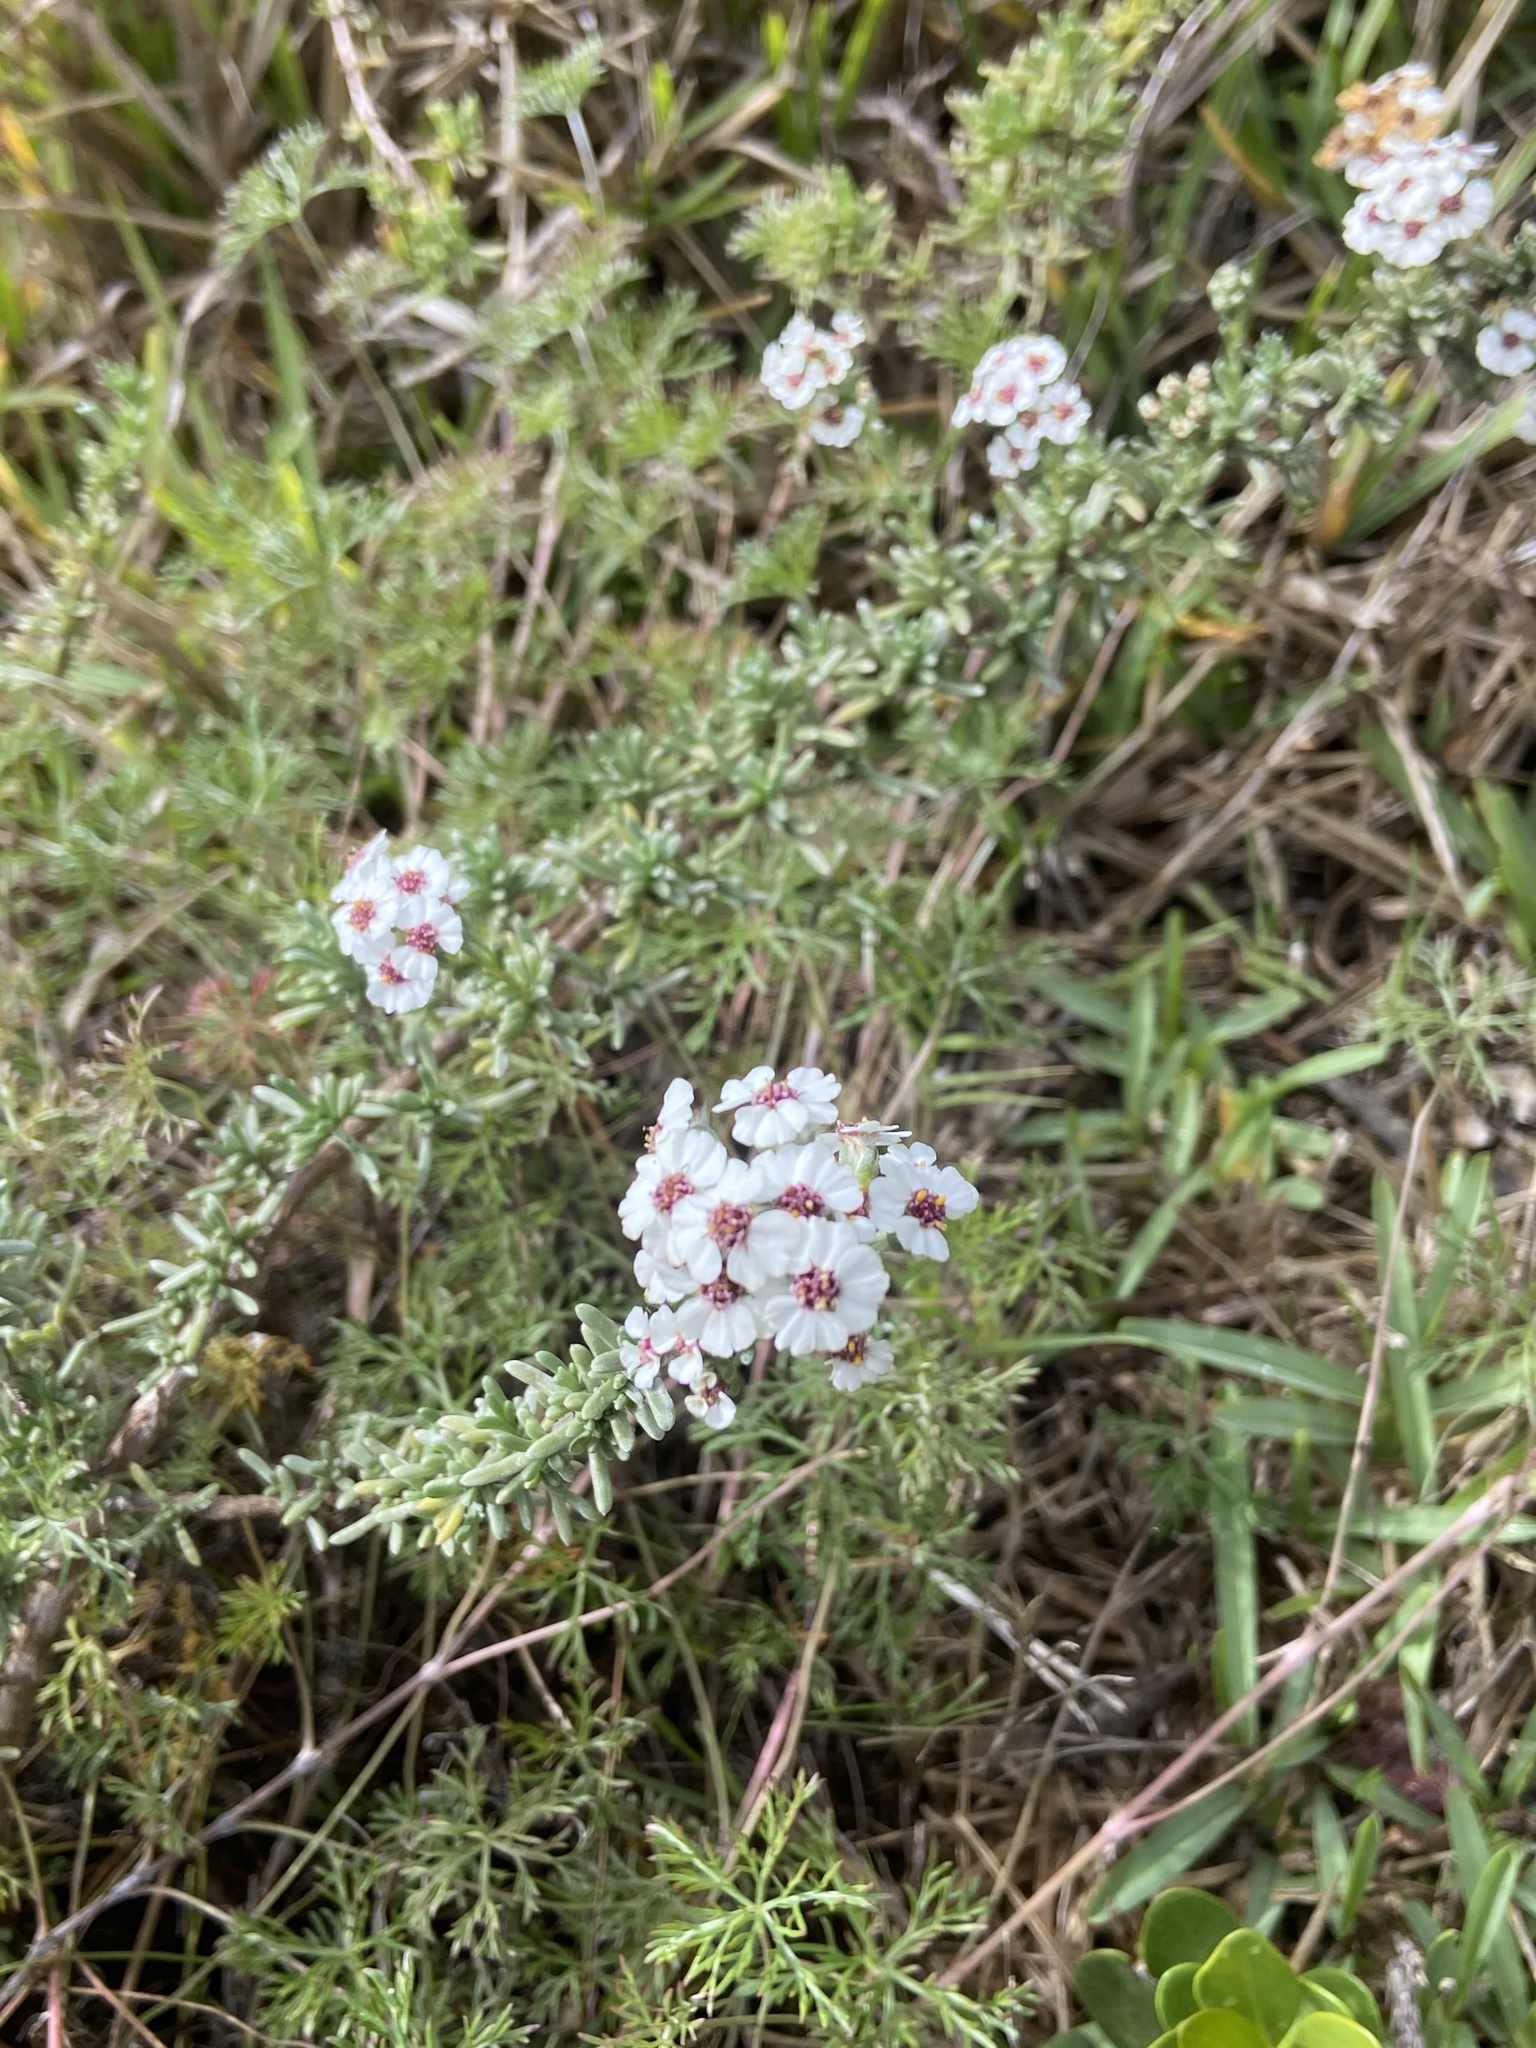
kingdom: Plantae
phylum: Tracheophyta
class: Magnoliopsida
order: Asterales
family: Asteraceae
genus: Eriocephalus
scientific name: Eriocephalus africanus
